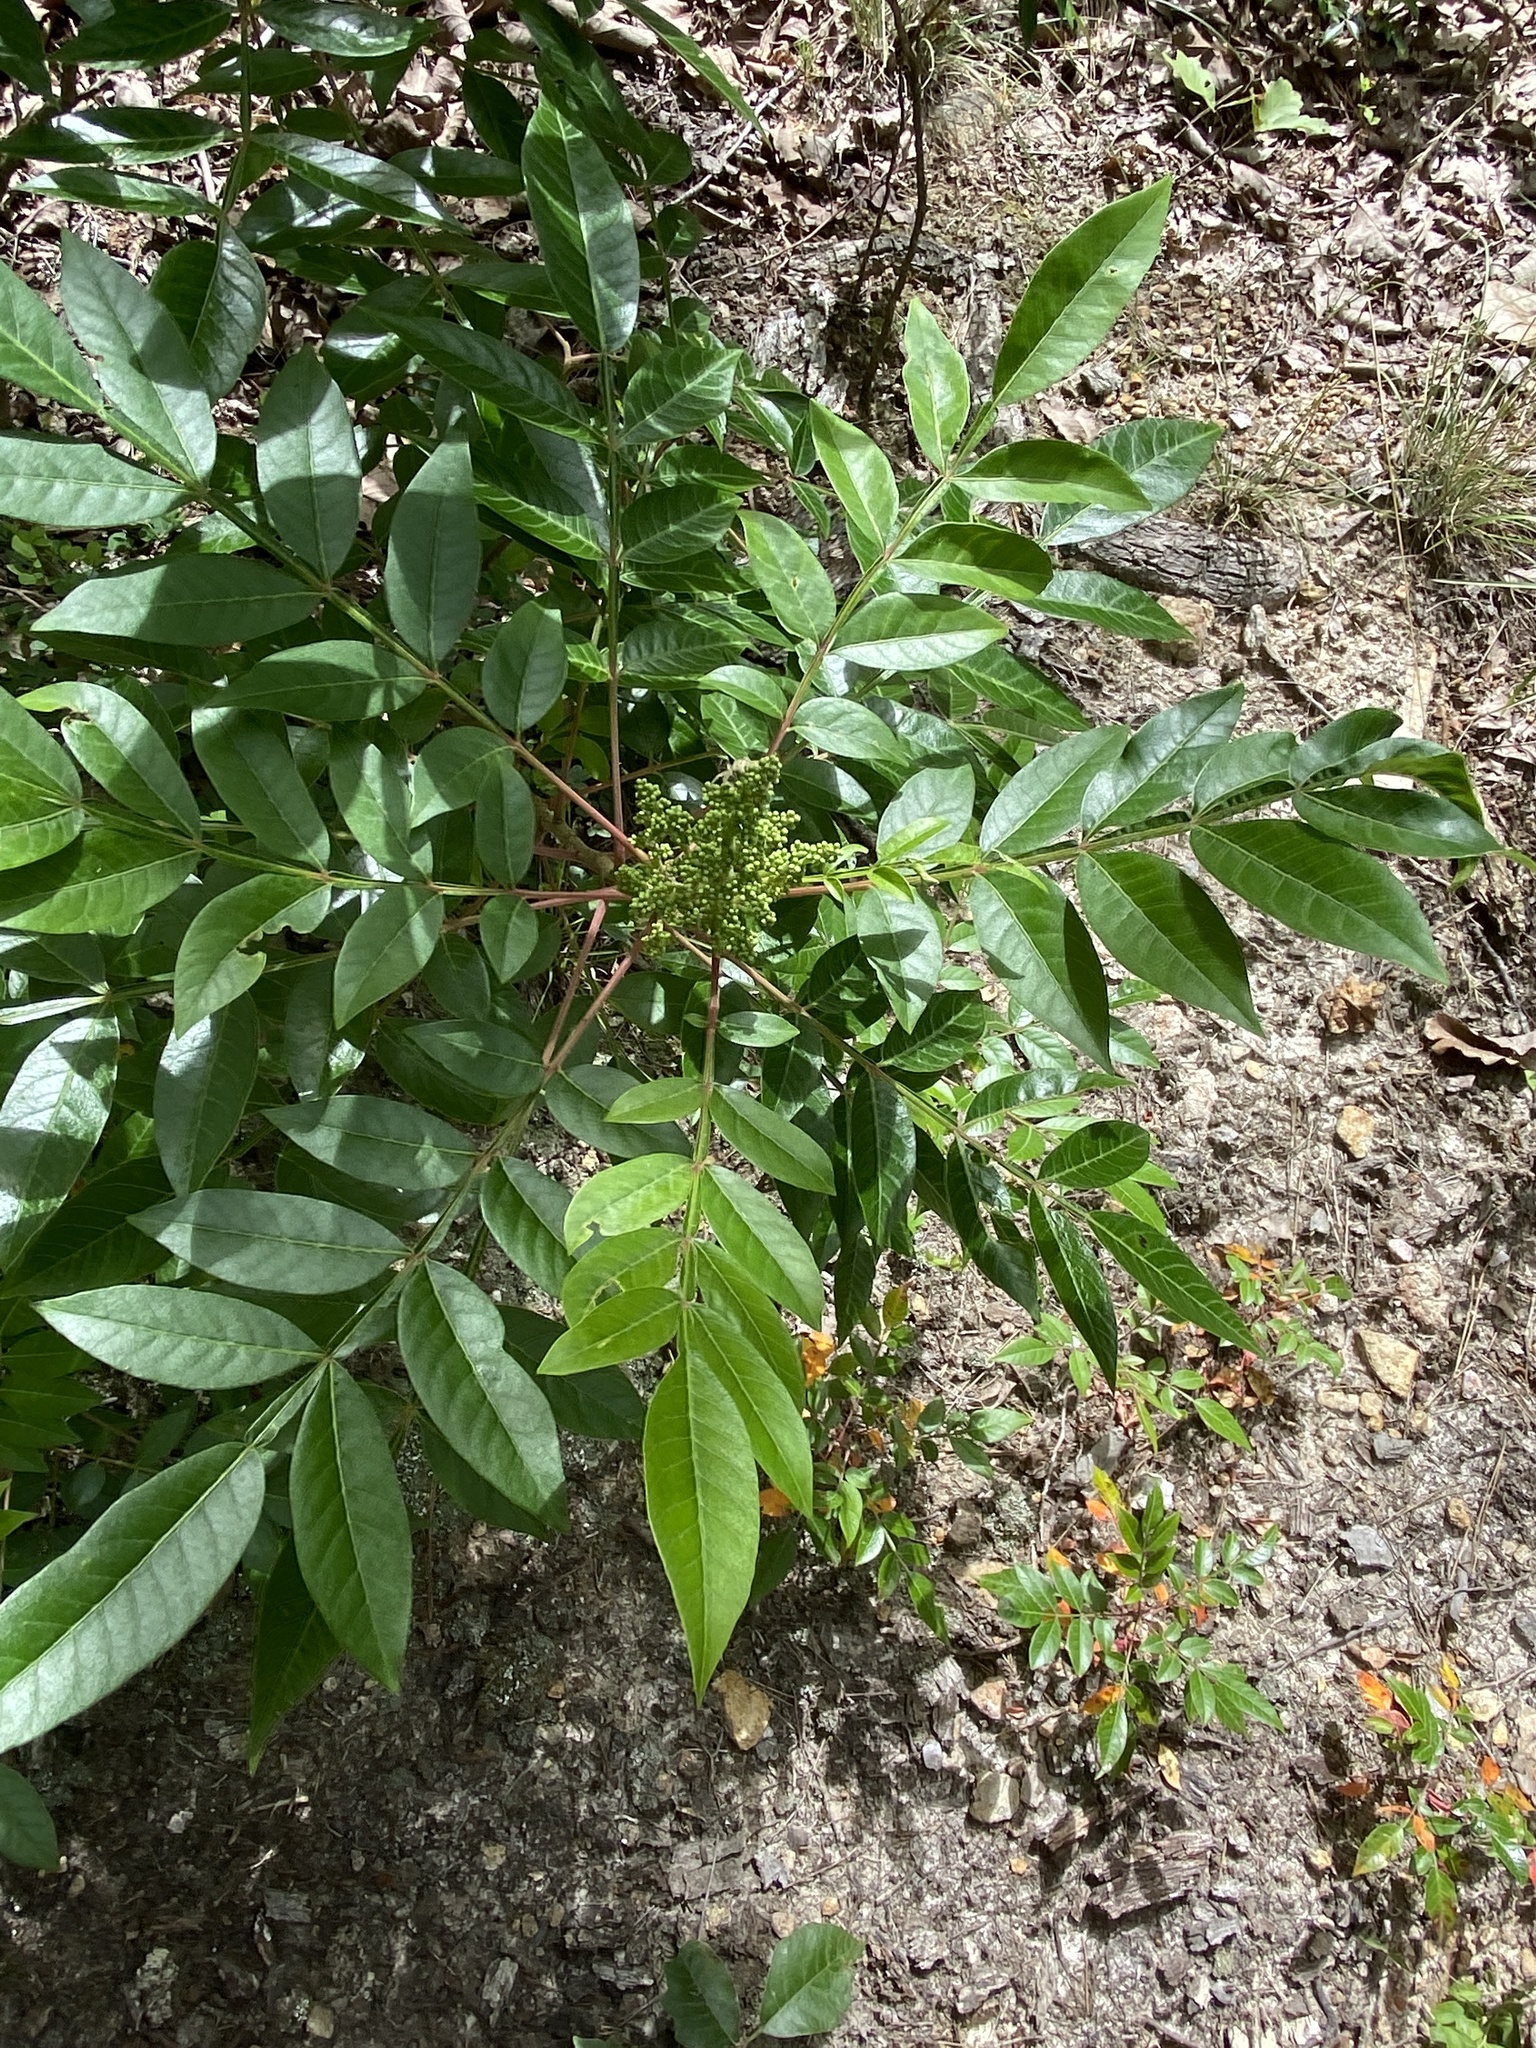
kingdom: Plantae
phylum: Tracheophyta
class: Magnoliopsida
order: Sapindales
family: Anacardiaceae
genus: Rhus
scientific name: Rhus copallina
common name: Shining sumac
